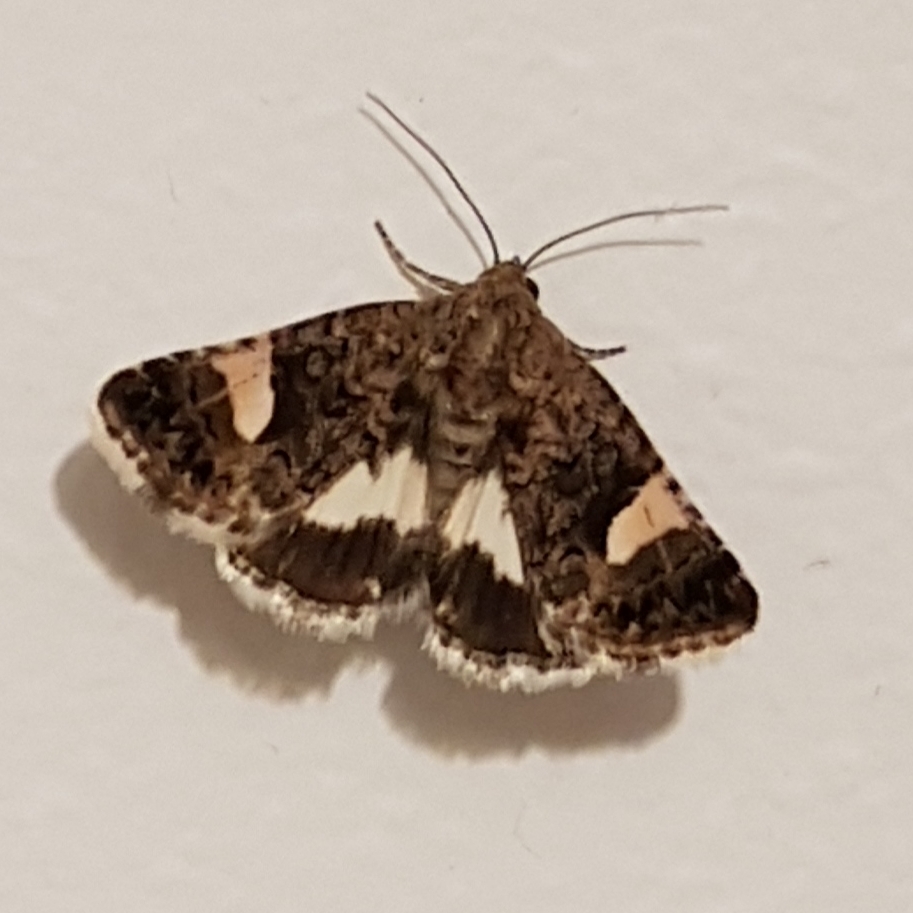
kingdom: Animalia
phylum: Arthropoda
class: Insecta
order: Lepidoptera
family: Erebidae
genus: Tyta
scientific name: Tyta luctuosa
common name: Four-spotted
